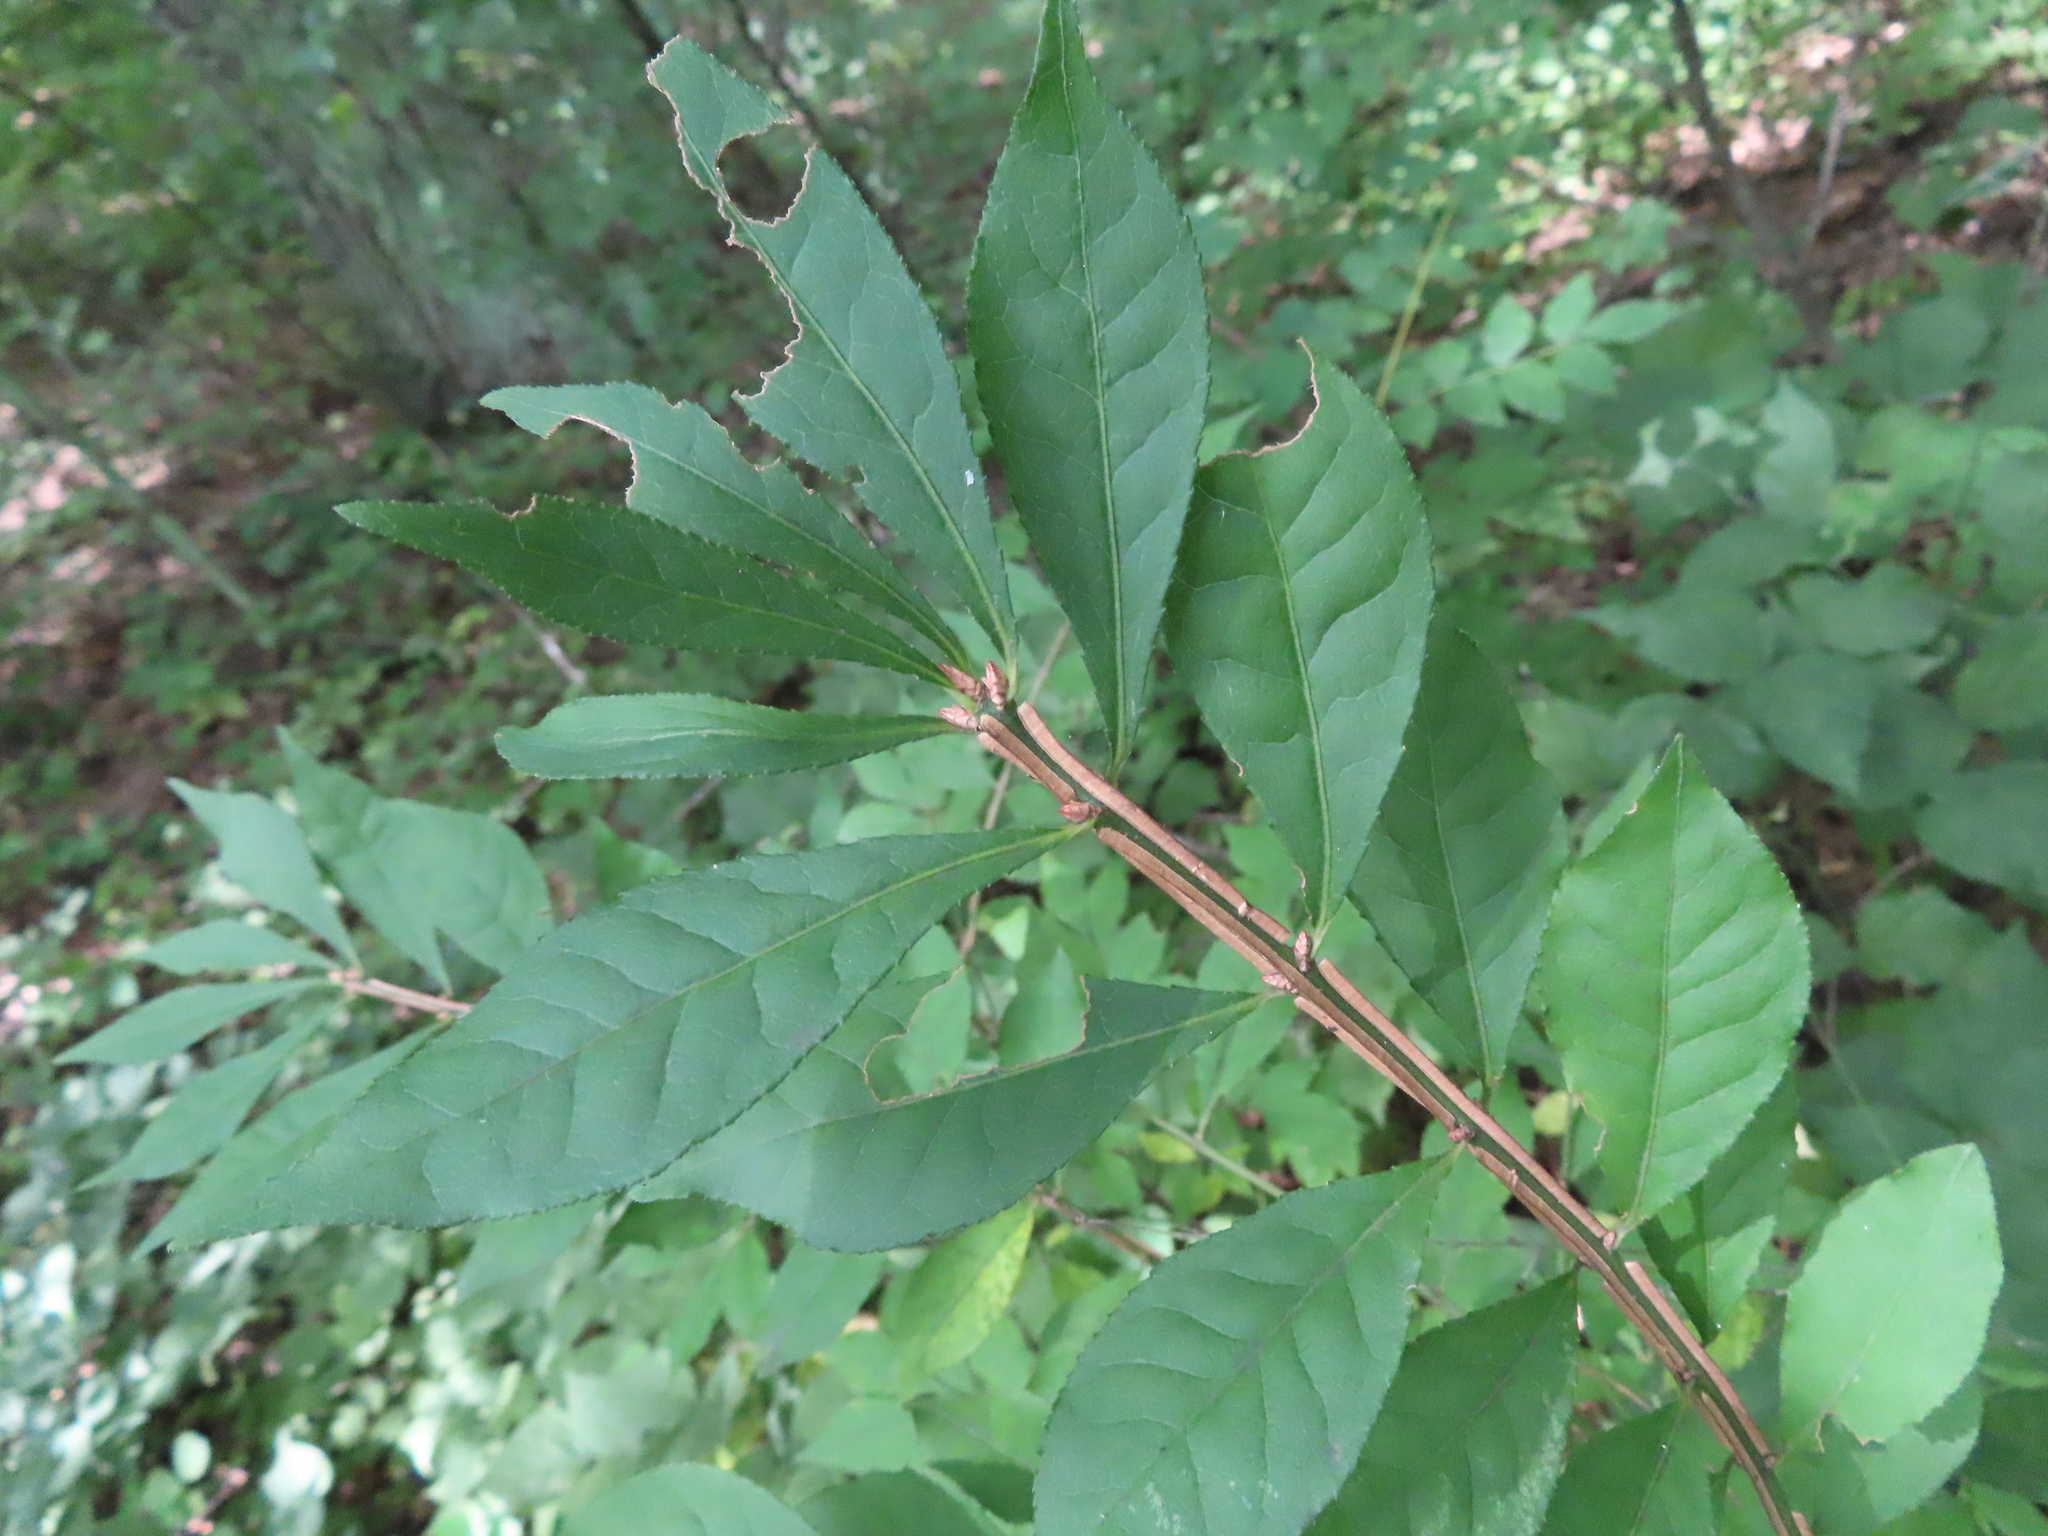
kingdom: Plantae
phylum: Tracheophyta
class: Magnoliopsida
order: Celastrales
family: Celastraceae
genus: Euonymus
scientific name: Euonymus alatus
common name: Winged euonymus
